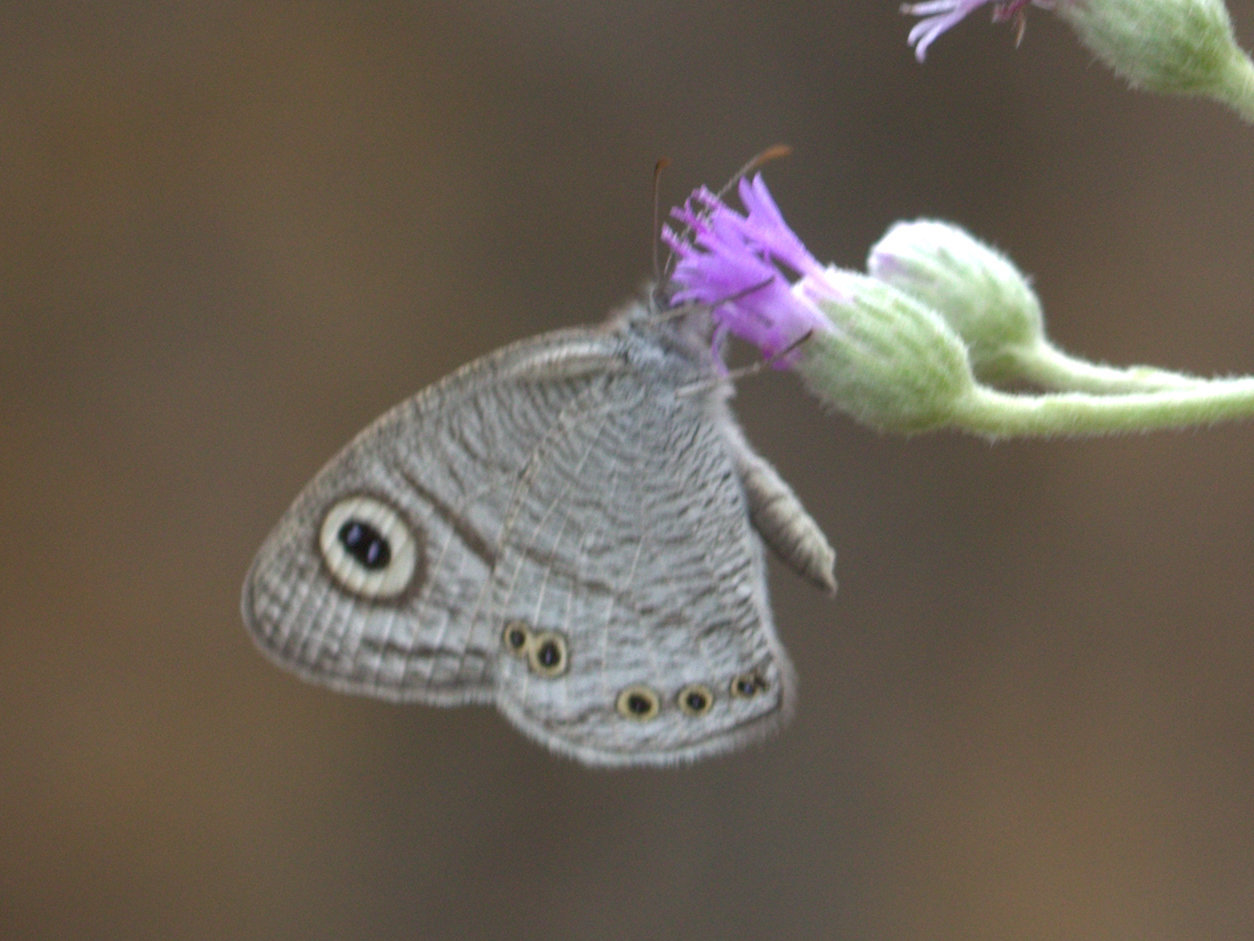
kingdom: Animalia
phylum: Arthropoda
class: Insecta
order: Lepidoptera
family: Nymphalidae
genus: Ypthima
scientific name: Ypthima avanta
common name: Jewel five-ring
